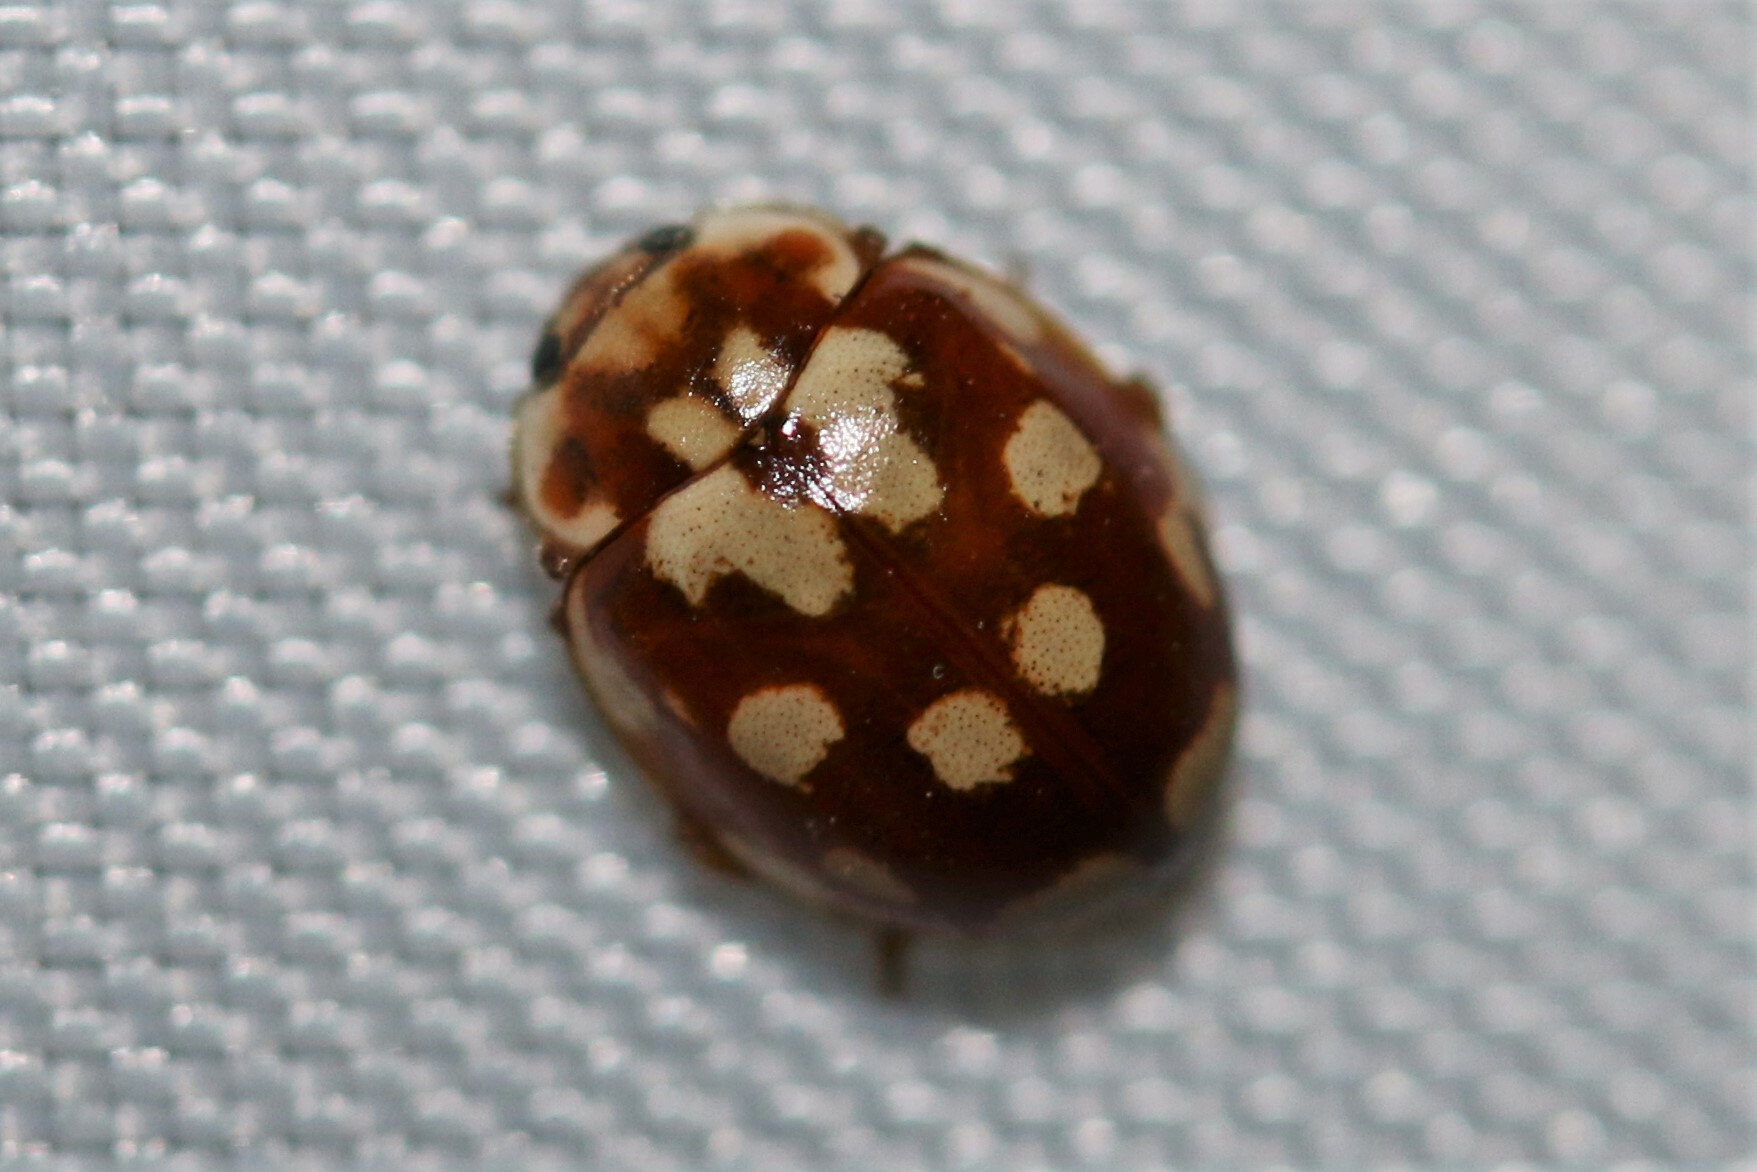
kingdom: Animalia
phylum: Arthropoda
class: Insecta
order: Coleoptera
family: Coccinellidae
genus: Myrrha
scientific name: Myrrha octodecimguttata
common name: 18-spot ladybird
